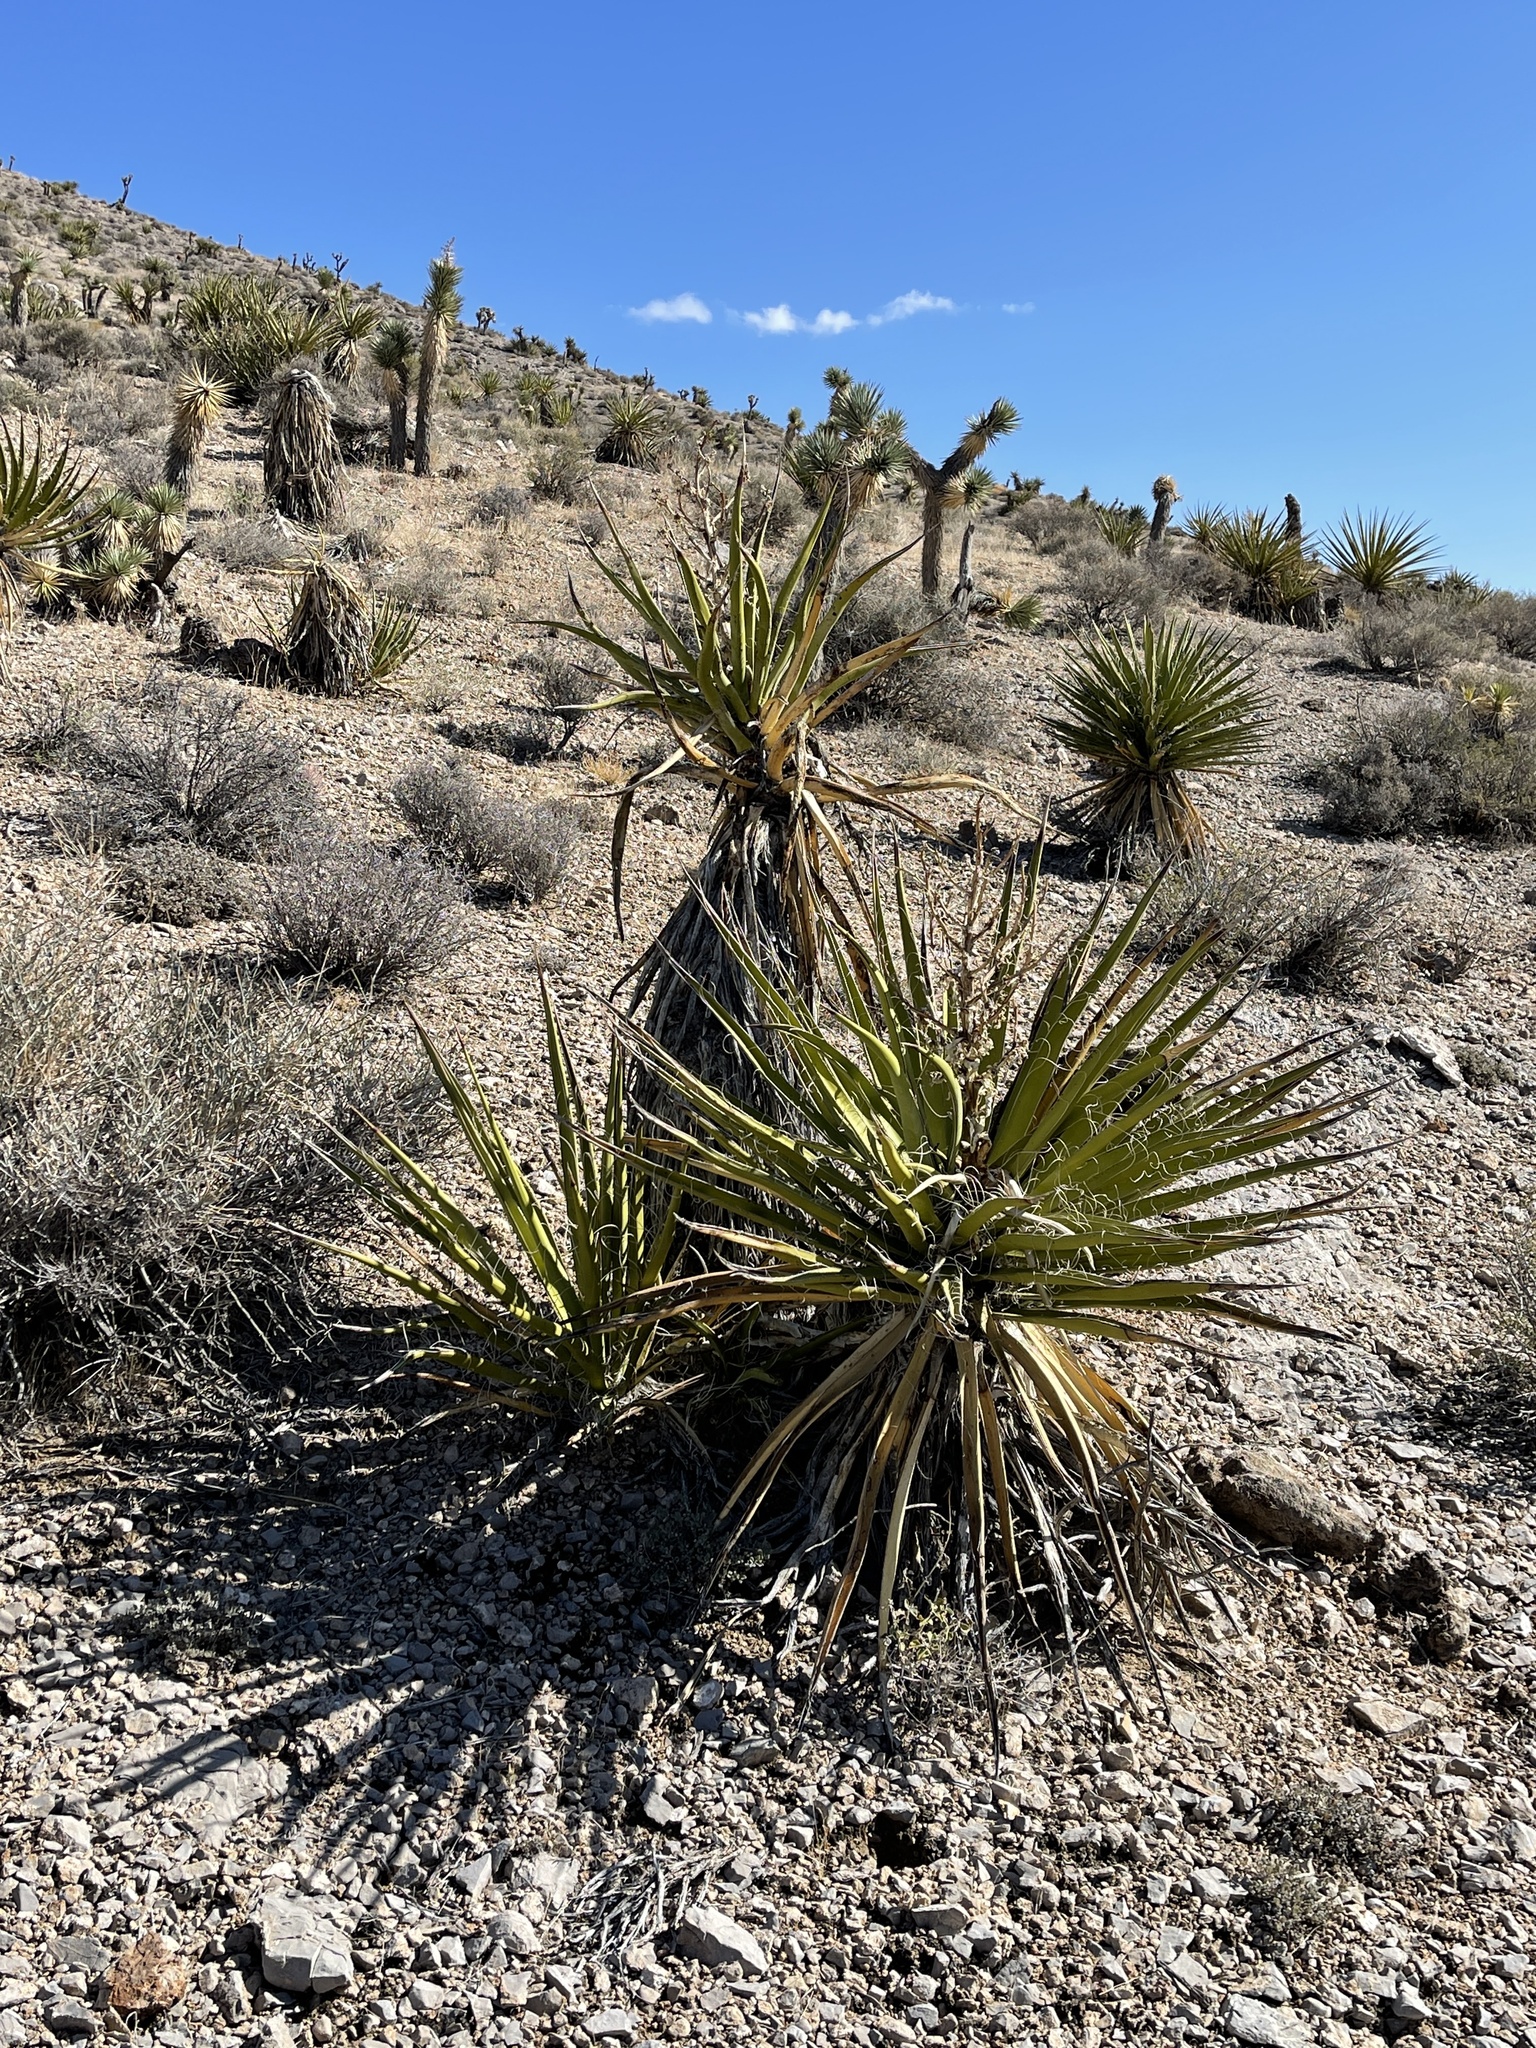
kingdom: Plantae
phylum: Tracheophyta
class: Liliopsida
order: Asparagales
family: Asparagaceae
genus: Yucca
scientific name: Yucca schidigera
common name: Mojave yucca
